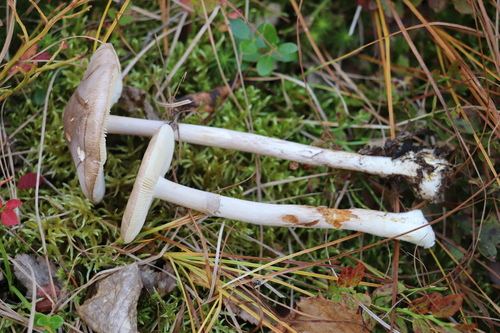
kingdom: Fungi
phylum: Basidiomycota
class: Agaricomycetes
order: Agaricales
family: Amanitaceae
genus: Amanita
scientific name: Amanita porphyria
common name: Grey veiled amanita
